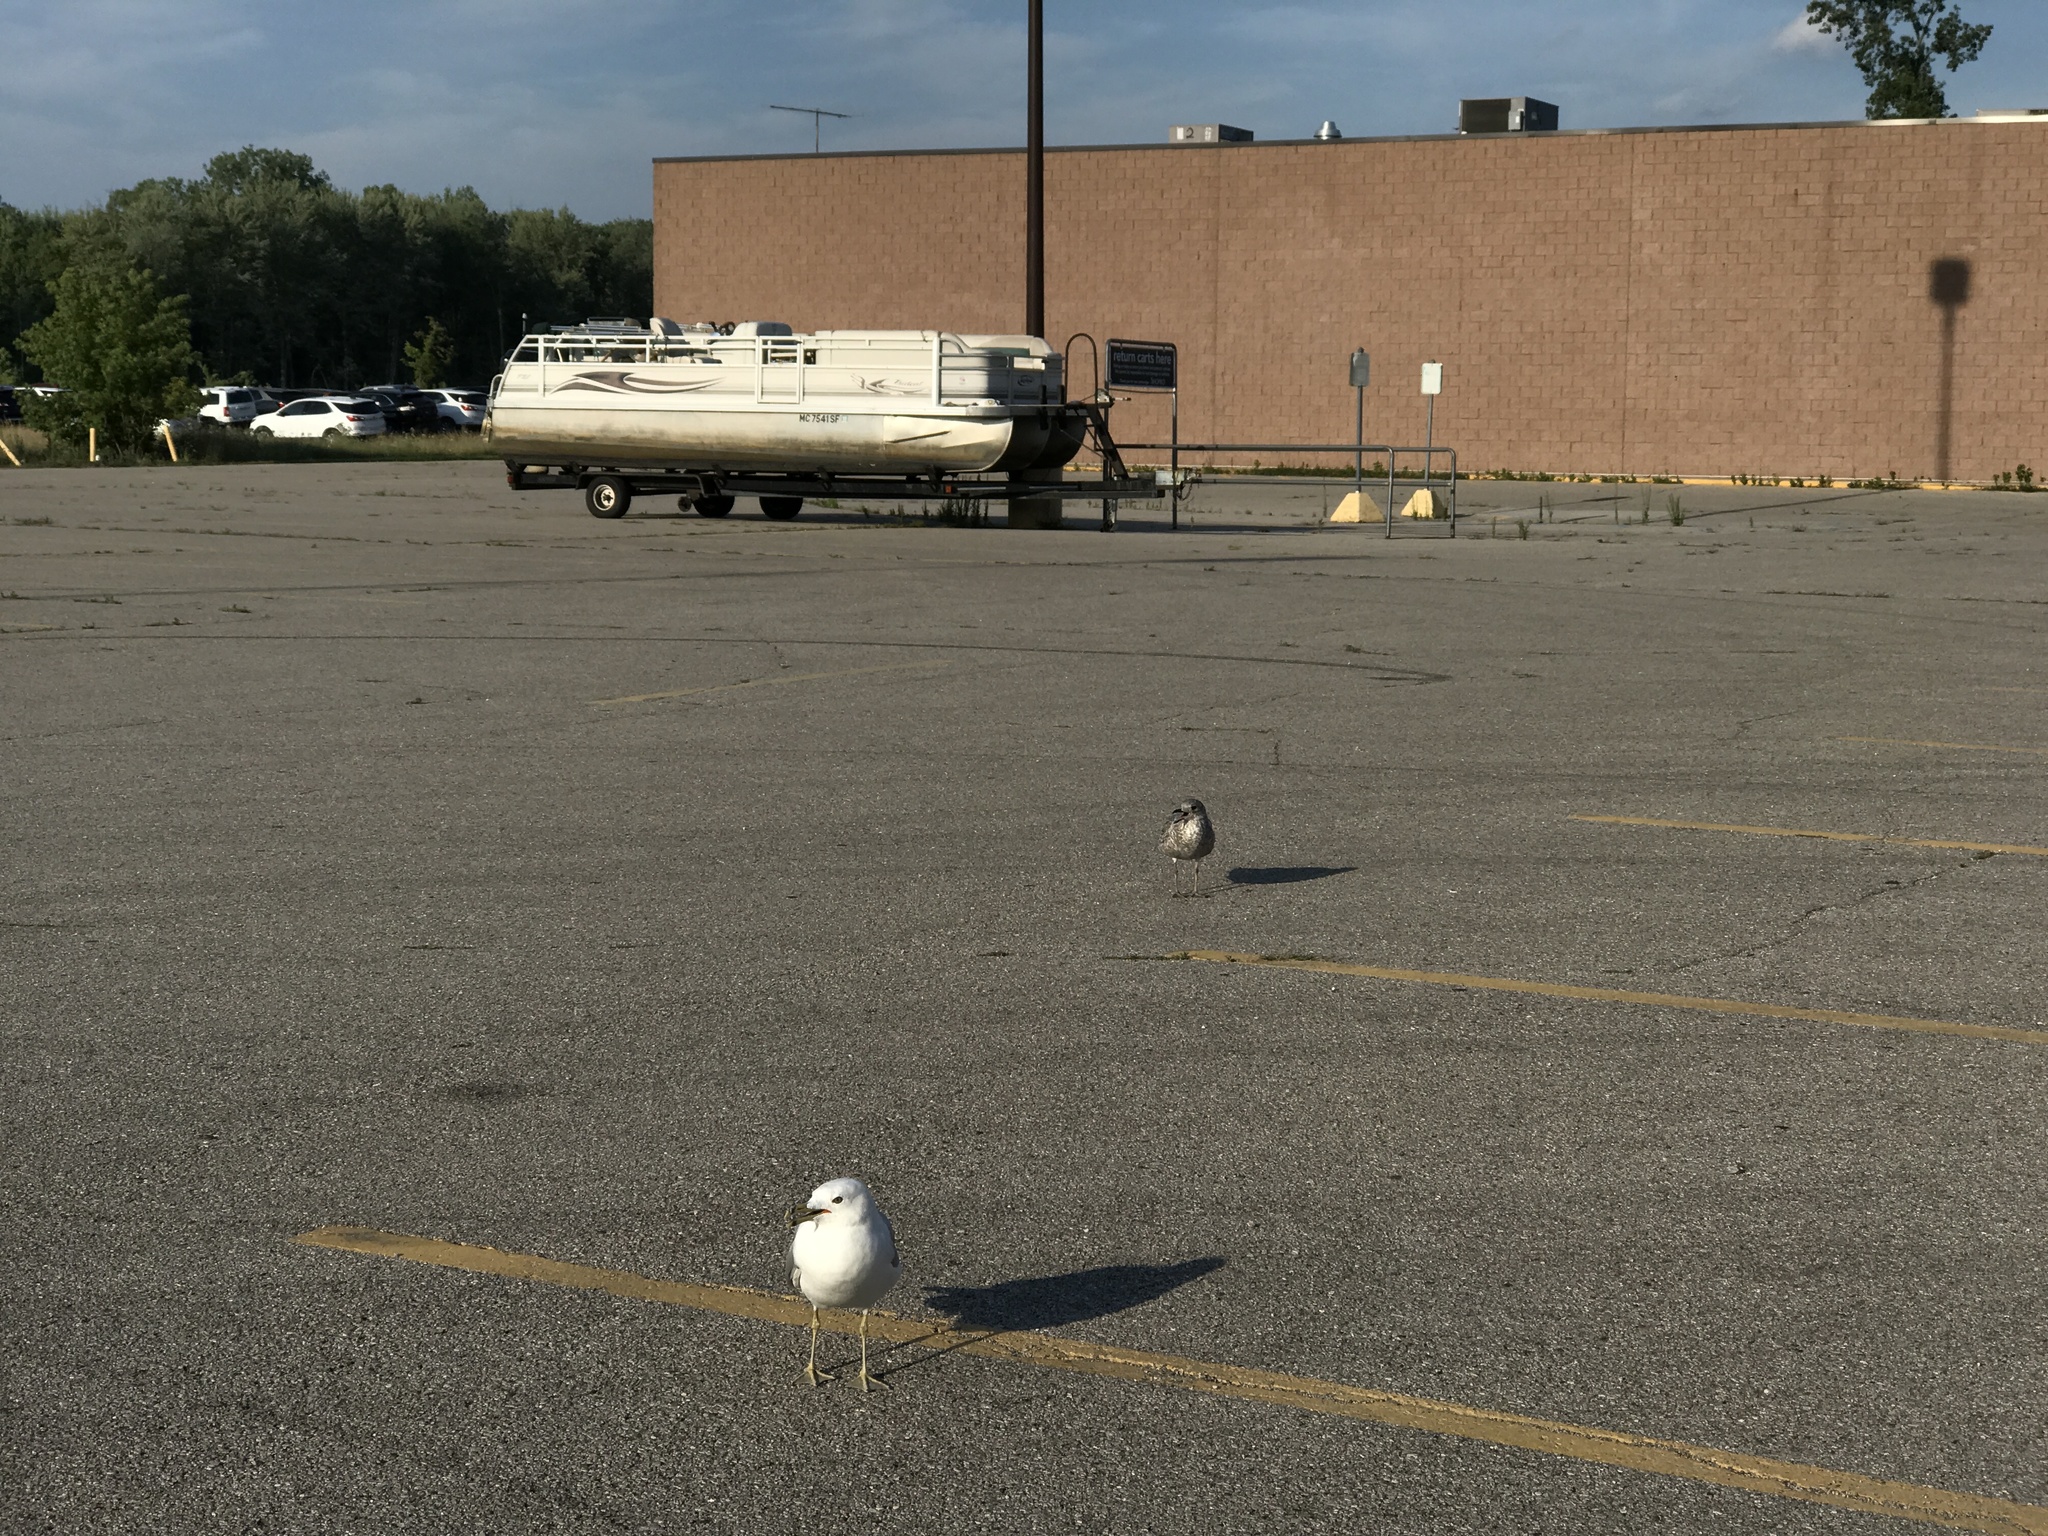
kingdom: Animalia
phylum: Chordata
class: Aves
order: Charadriiformes
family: Laridae
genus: Larus
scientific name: Larus delawarensis
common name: Ring-billed gull
